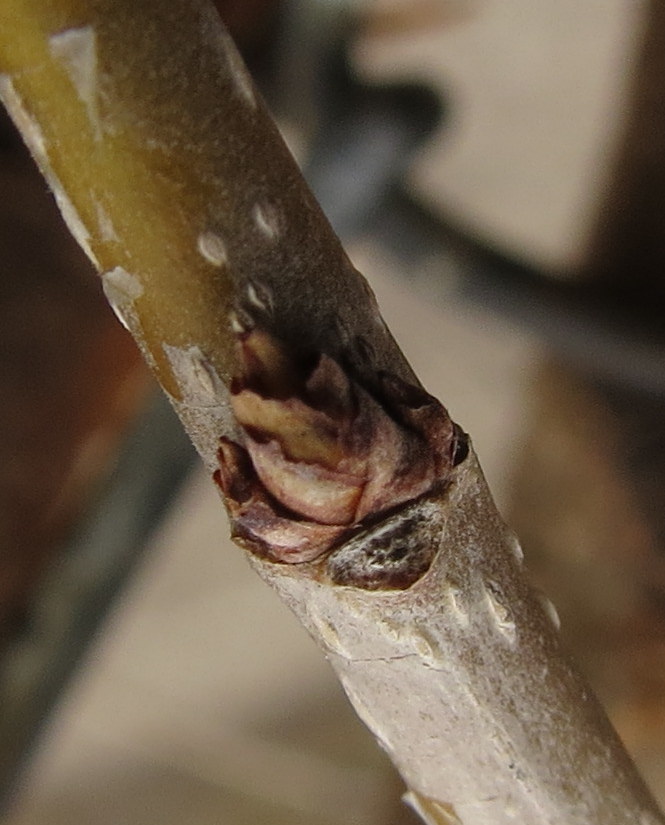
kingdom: Plantae
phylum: Tracheophyta
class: Magnoliopsida
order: Rosales
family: Moraceae
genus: Morus
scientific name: Morus alba
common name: White mulberry
